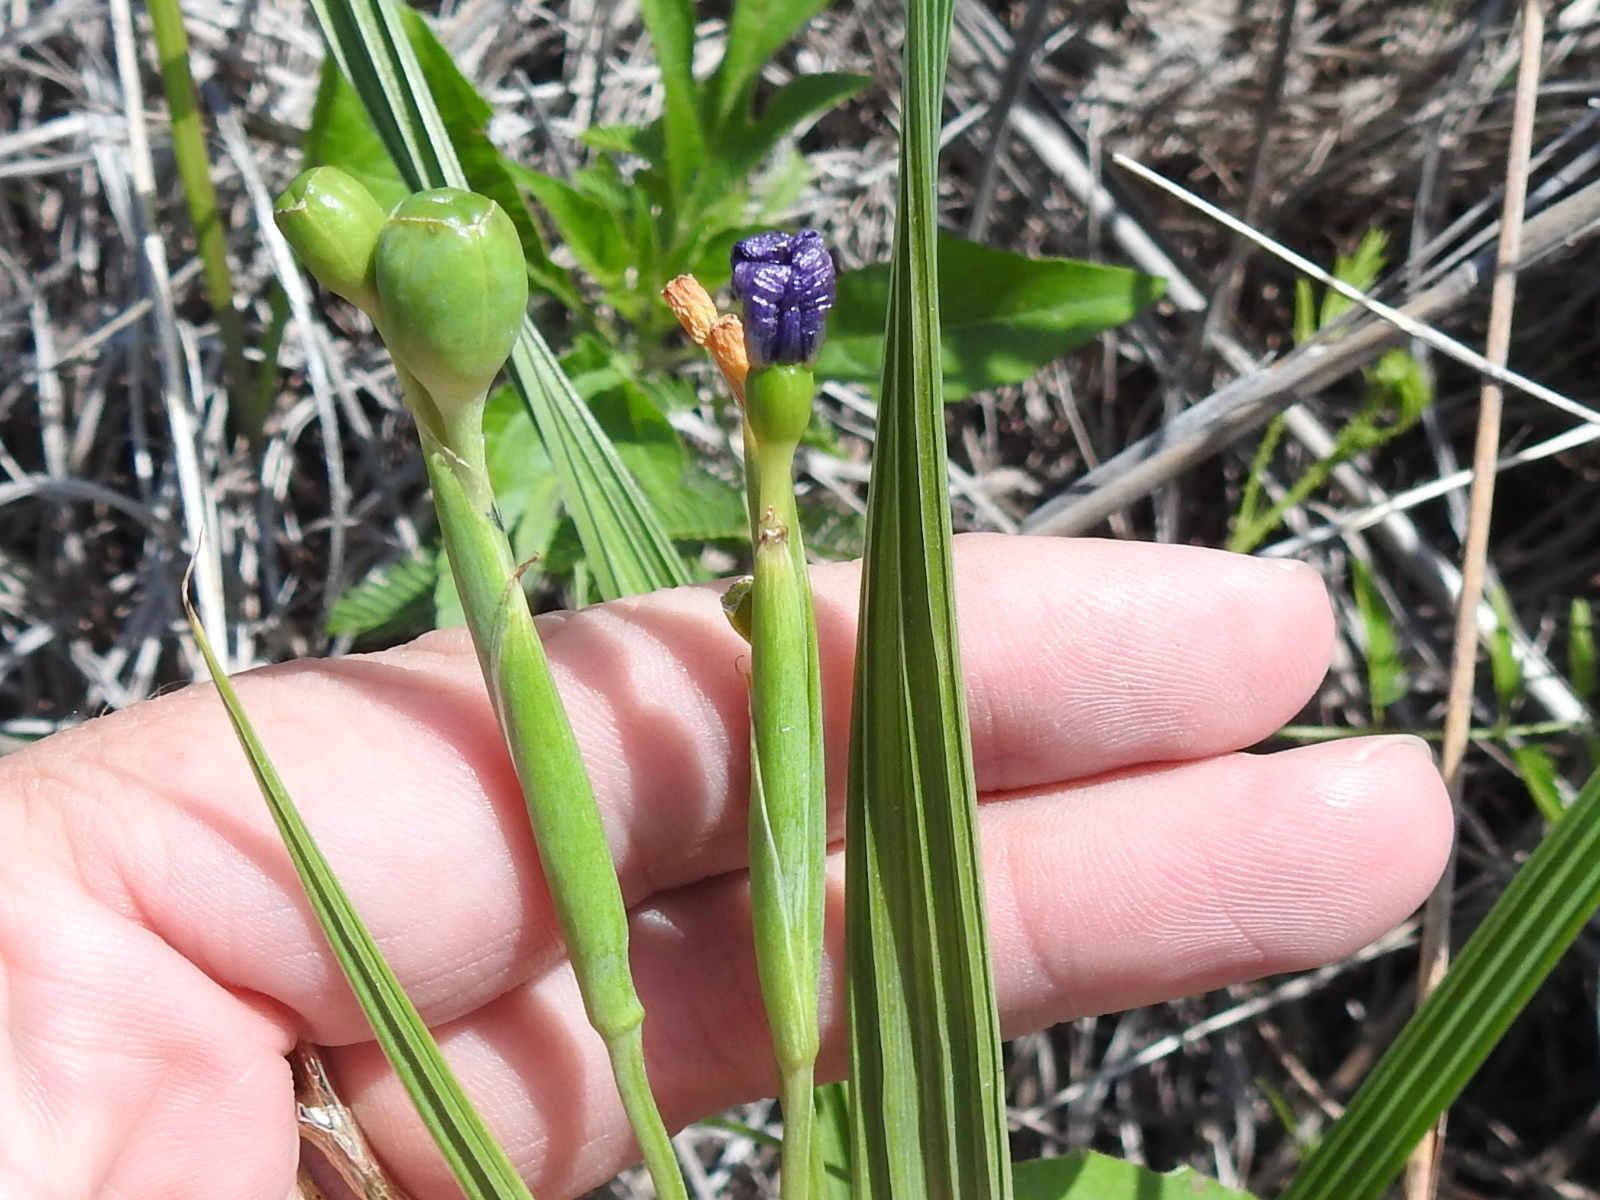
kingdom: Plantae
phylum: Tracheophyta
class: Liliopsida
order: Asparagales
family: Iridaceae
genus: Nemastylis
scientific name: Nemastylis geminiflora
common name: Prairie celestial
